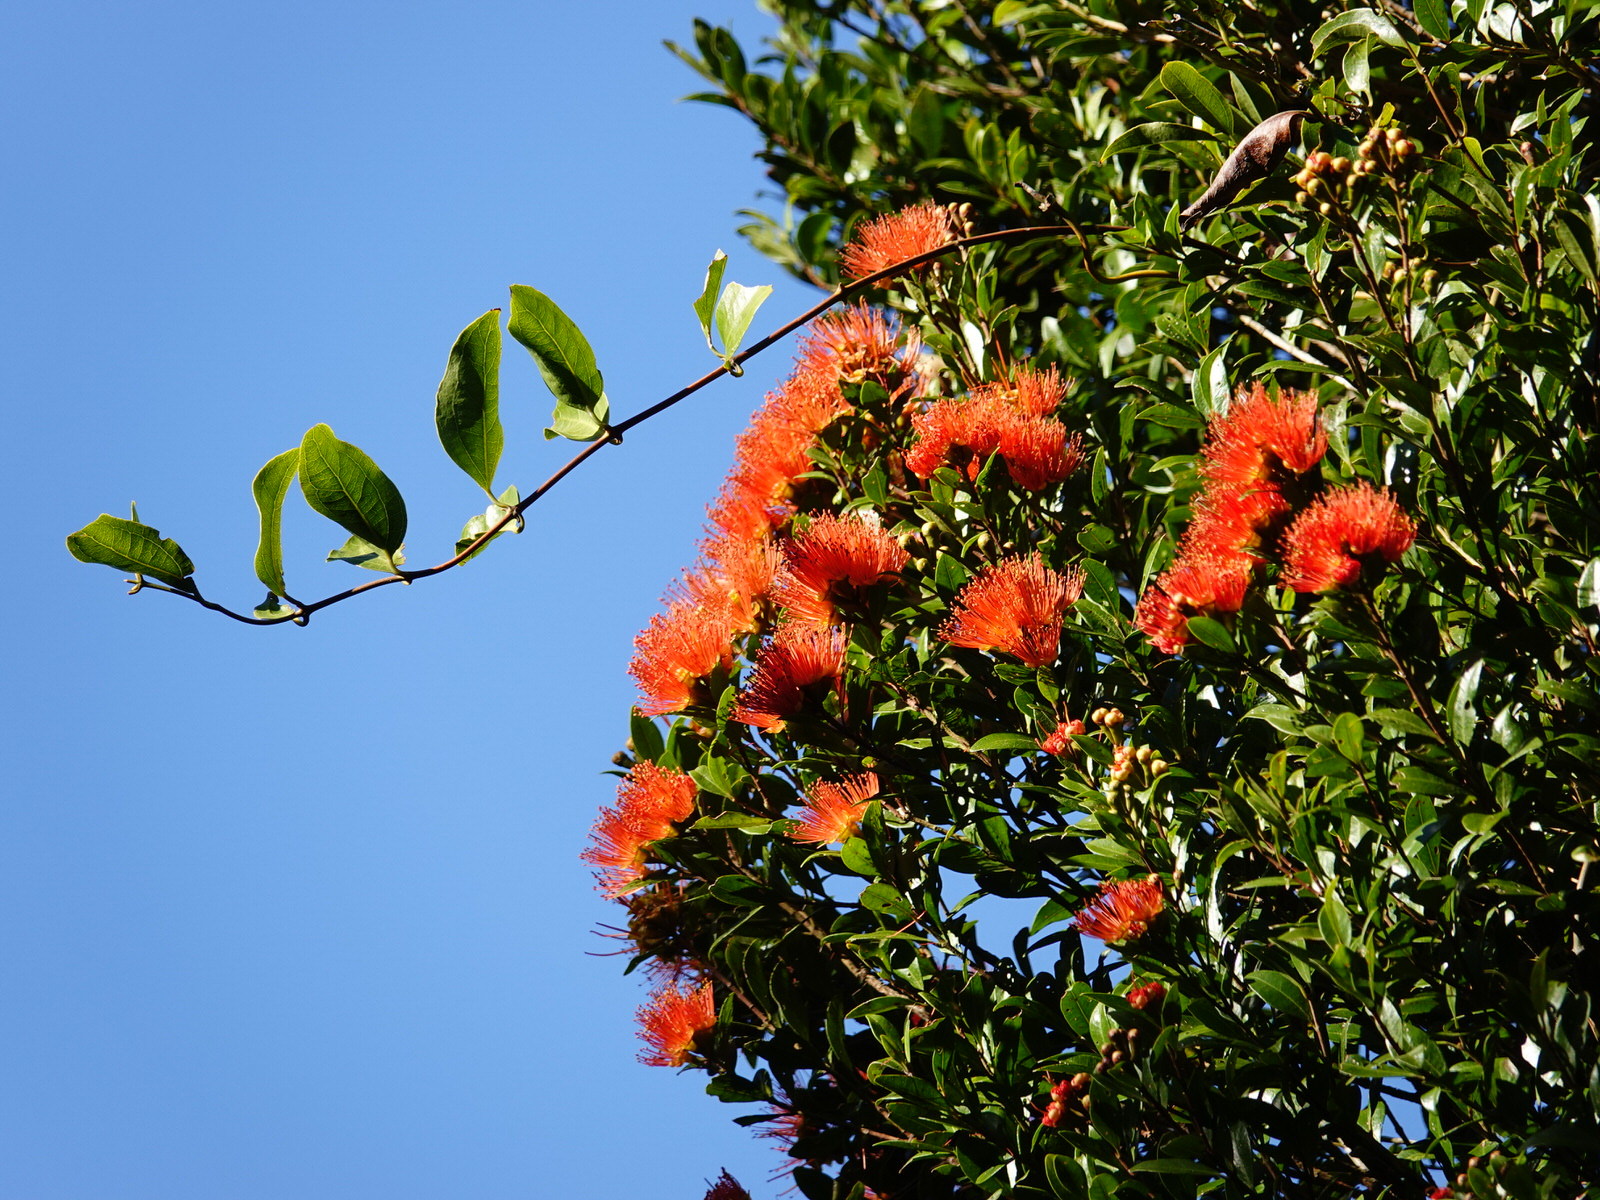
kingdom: Plantae
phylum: Tracheophyta
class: Magnoliopsida
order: Myrtales
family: Myrtaceae
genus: Metrosideros
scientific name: Metrosideros fulgens
